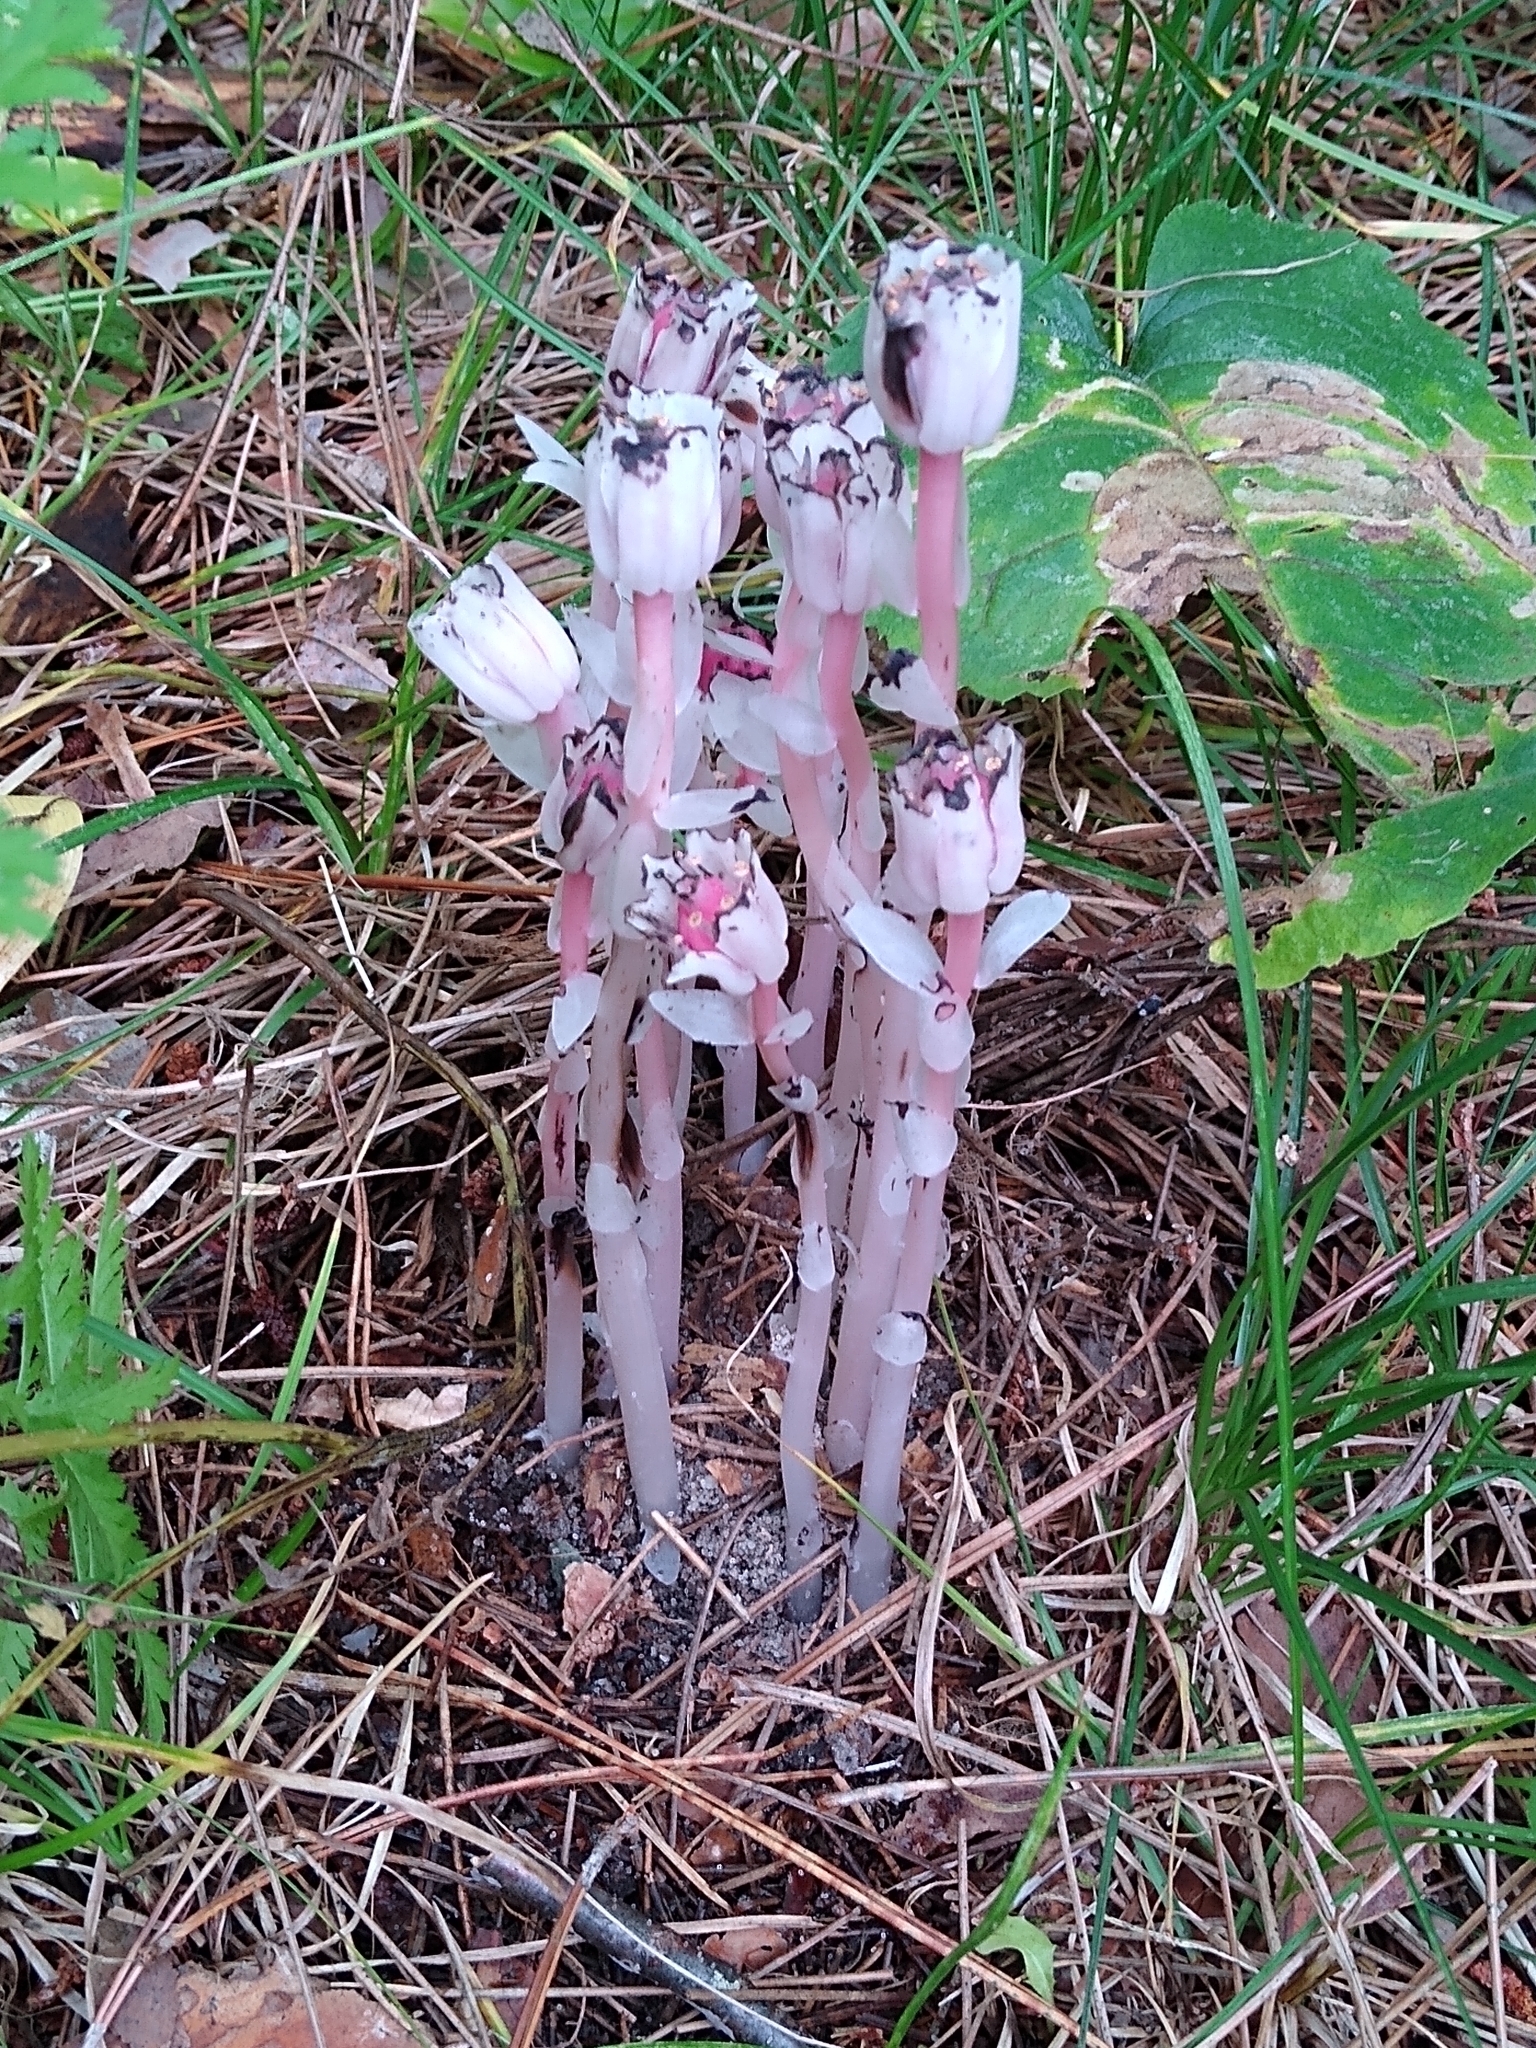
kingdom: Plantae
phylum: Tracheophyta
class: Magnoliopsida
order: Ericales
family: Ericaceae
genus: Monotropa
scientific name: Monotropa uniflora
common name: Convulsion root
